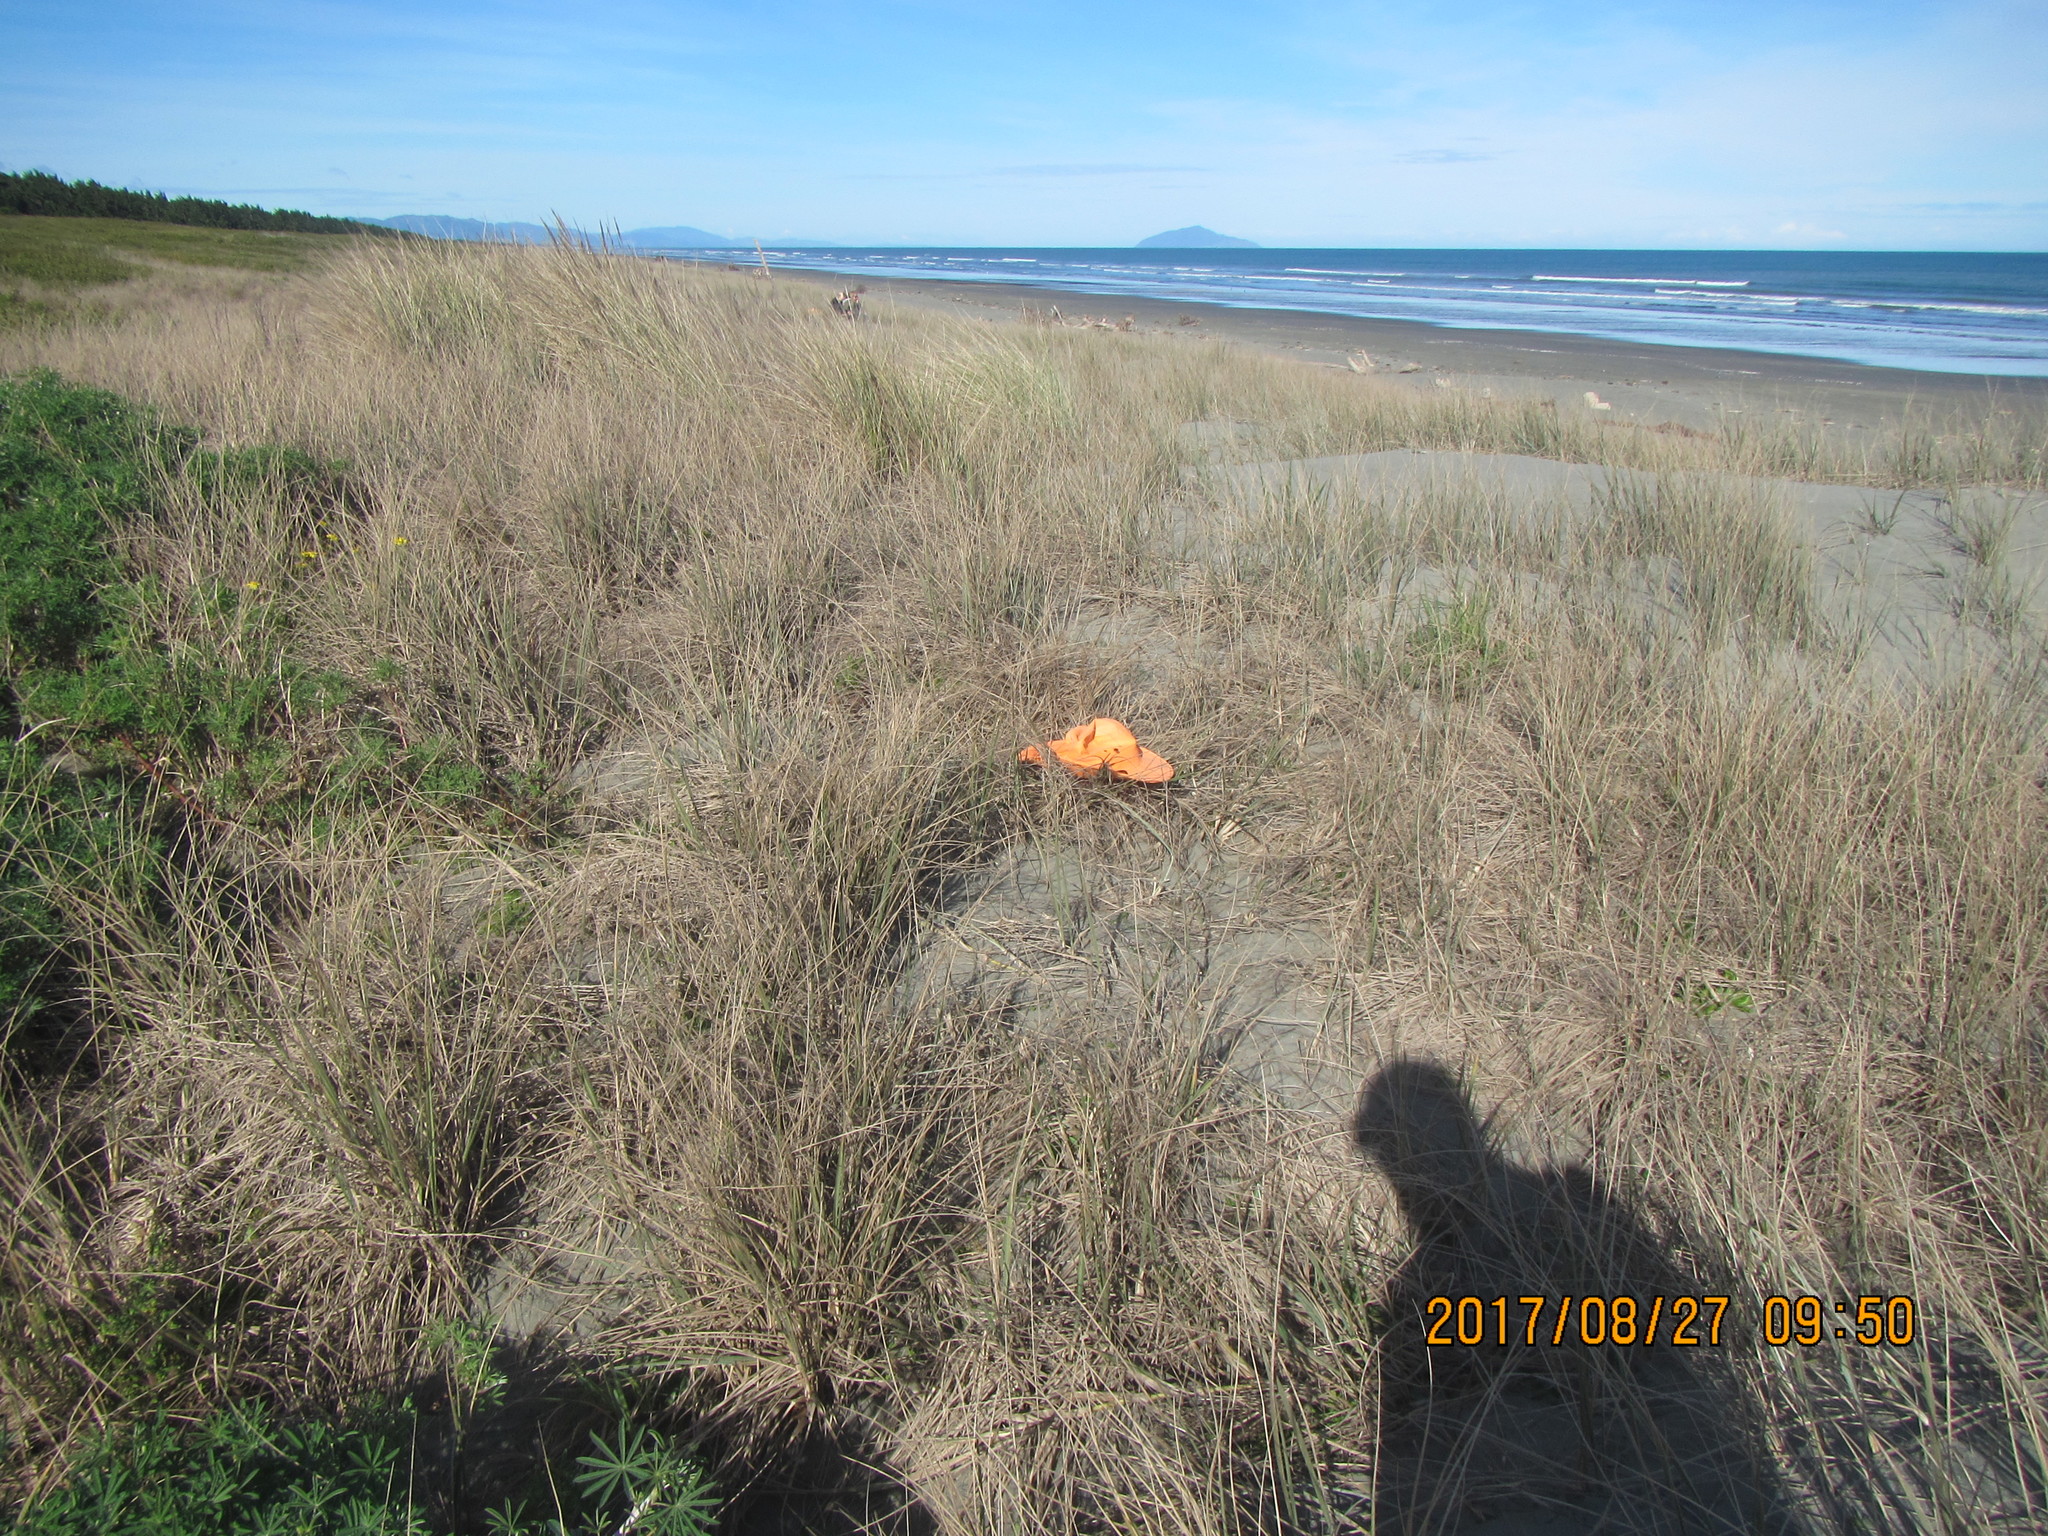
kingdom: Animalia
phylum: Mollusca
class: Gastropoda
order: Stylommatophora
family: Helicidae
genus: Cornu
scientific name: Cornu aspersum
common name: Brown garden snail
